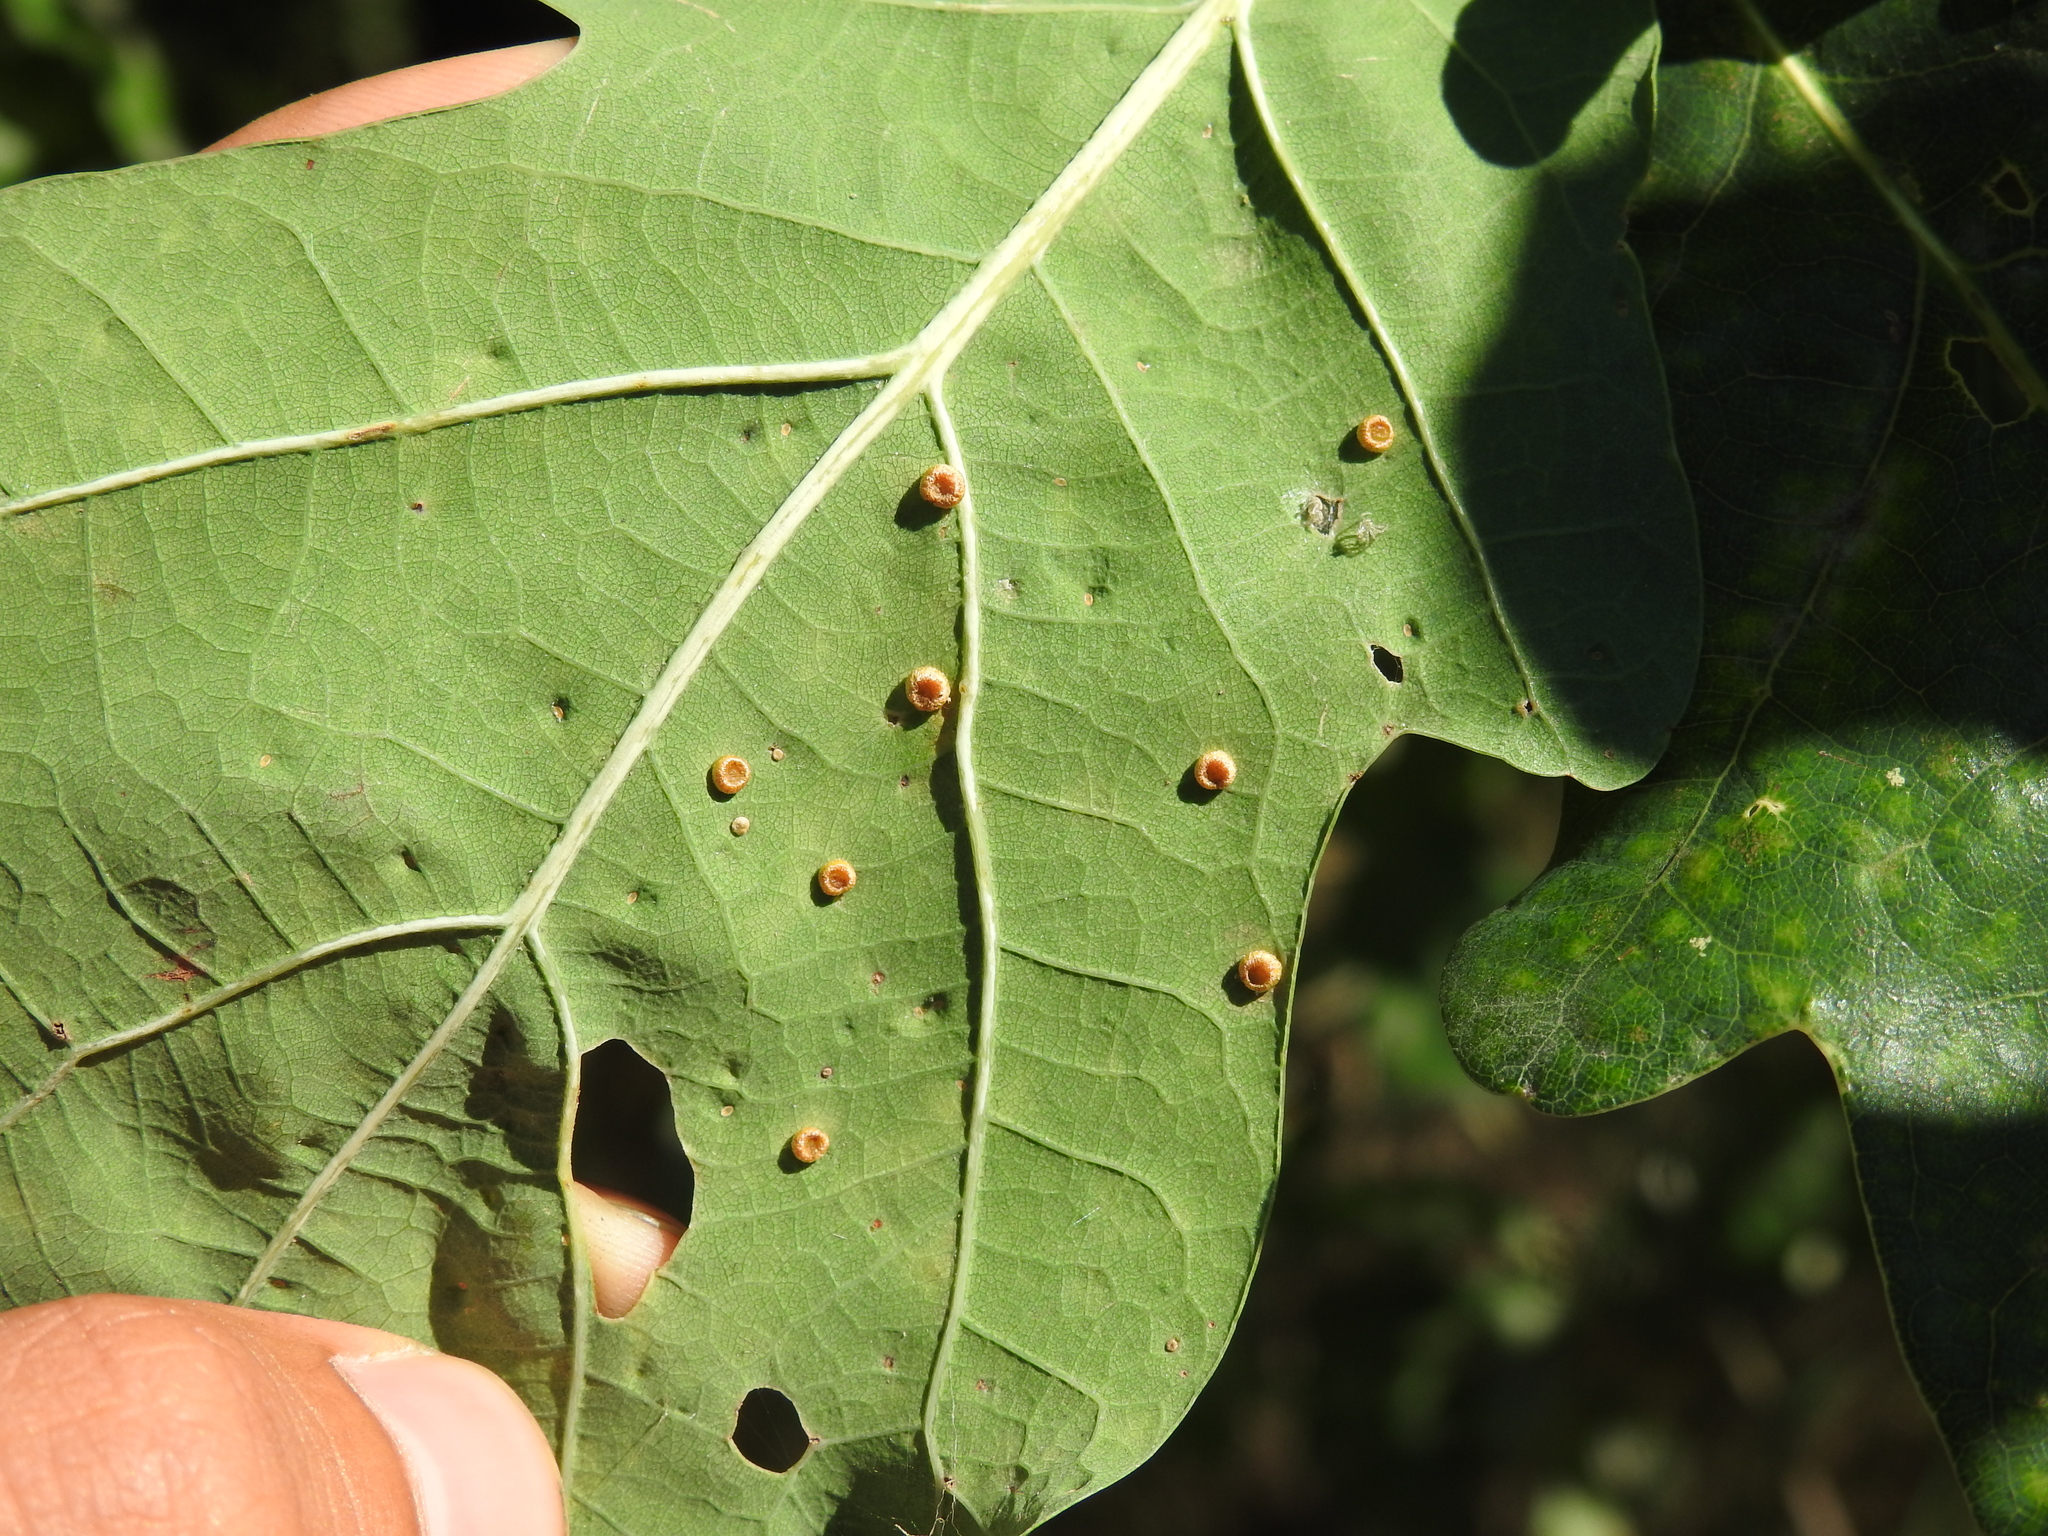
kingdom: Animalia
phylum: Arthropoda
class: Insecta
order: Hymenoptera
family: Cynipidae
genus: Neuroterus
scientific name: Neuroterus numismalis
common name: Silk-button spangle gall
